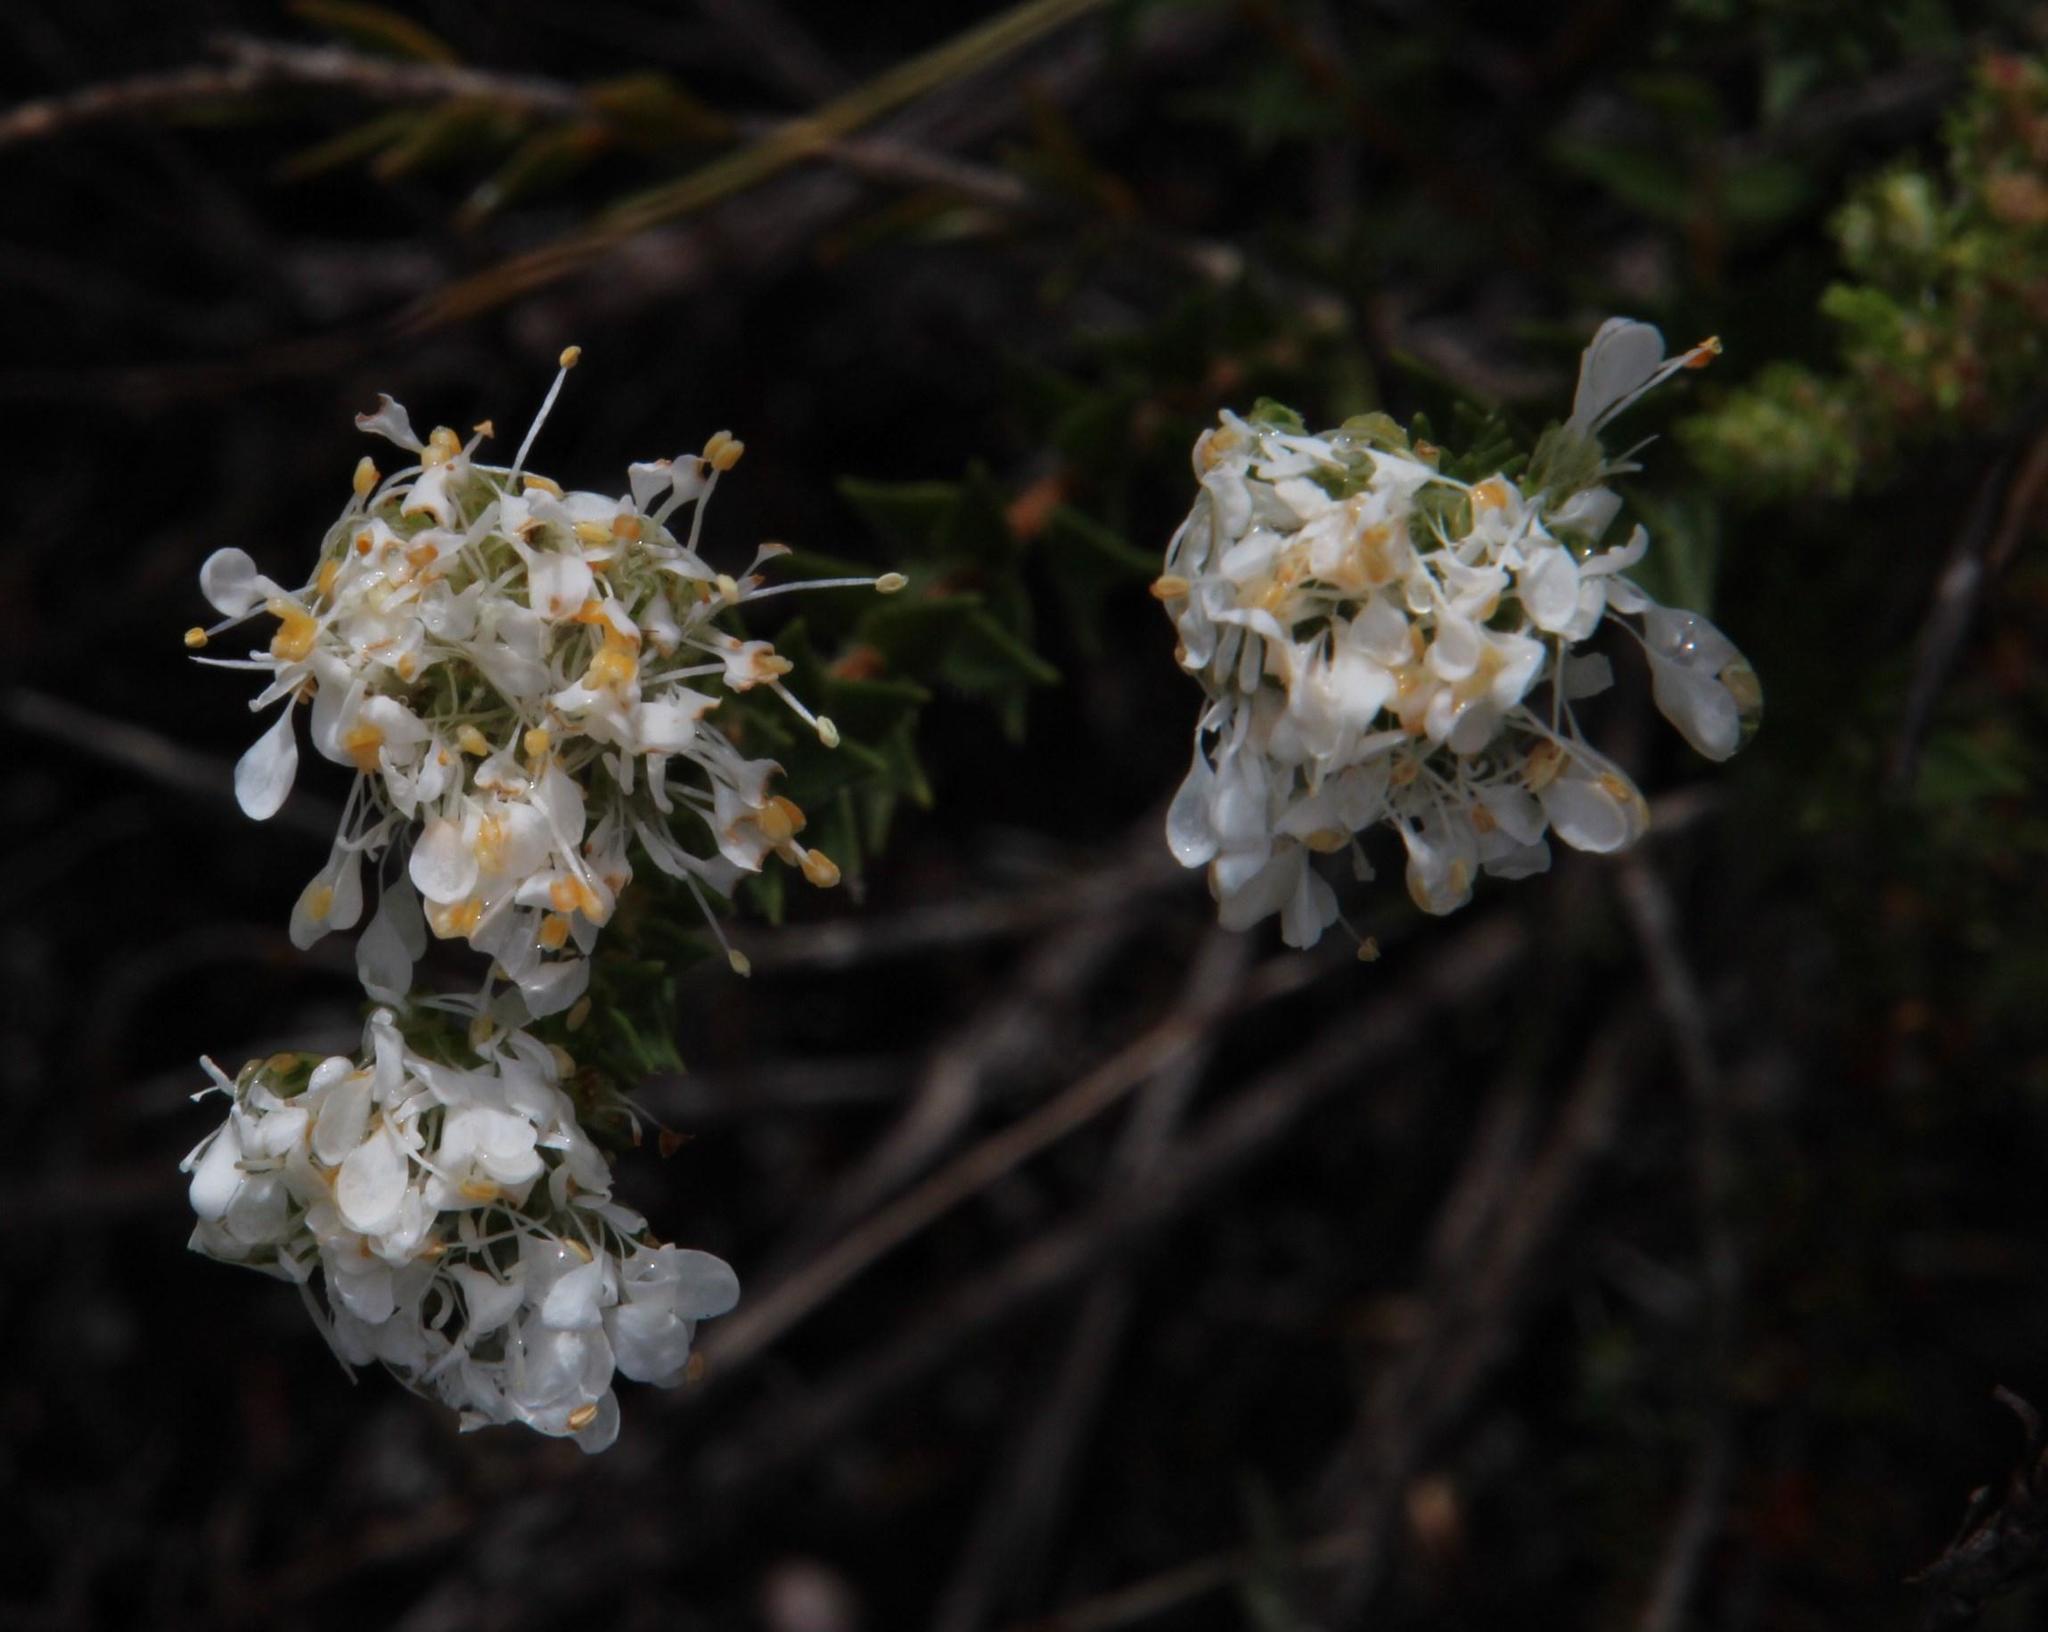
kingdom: Plantae
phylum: Tracheophyta
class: Magnoliopsida
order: Sapindales
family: Rutaceae
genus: Agathosma
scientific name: Agathosma imbricata
